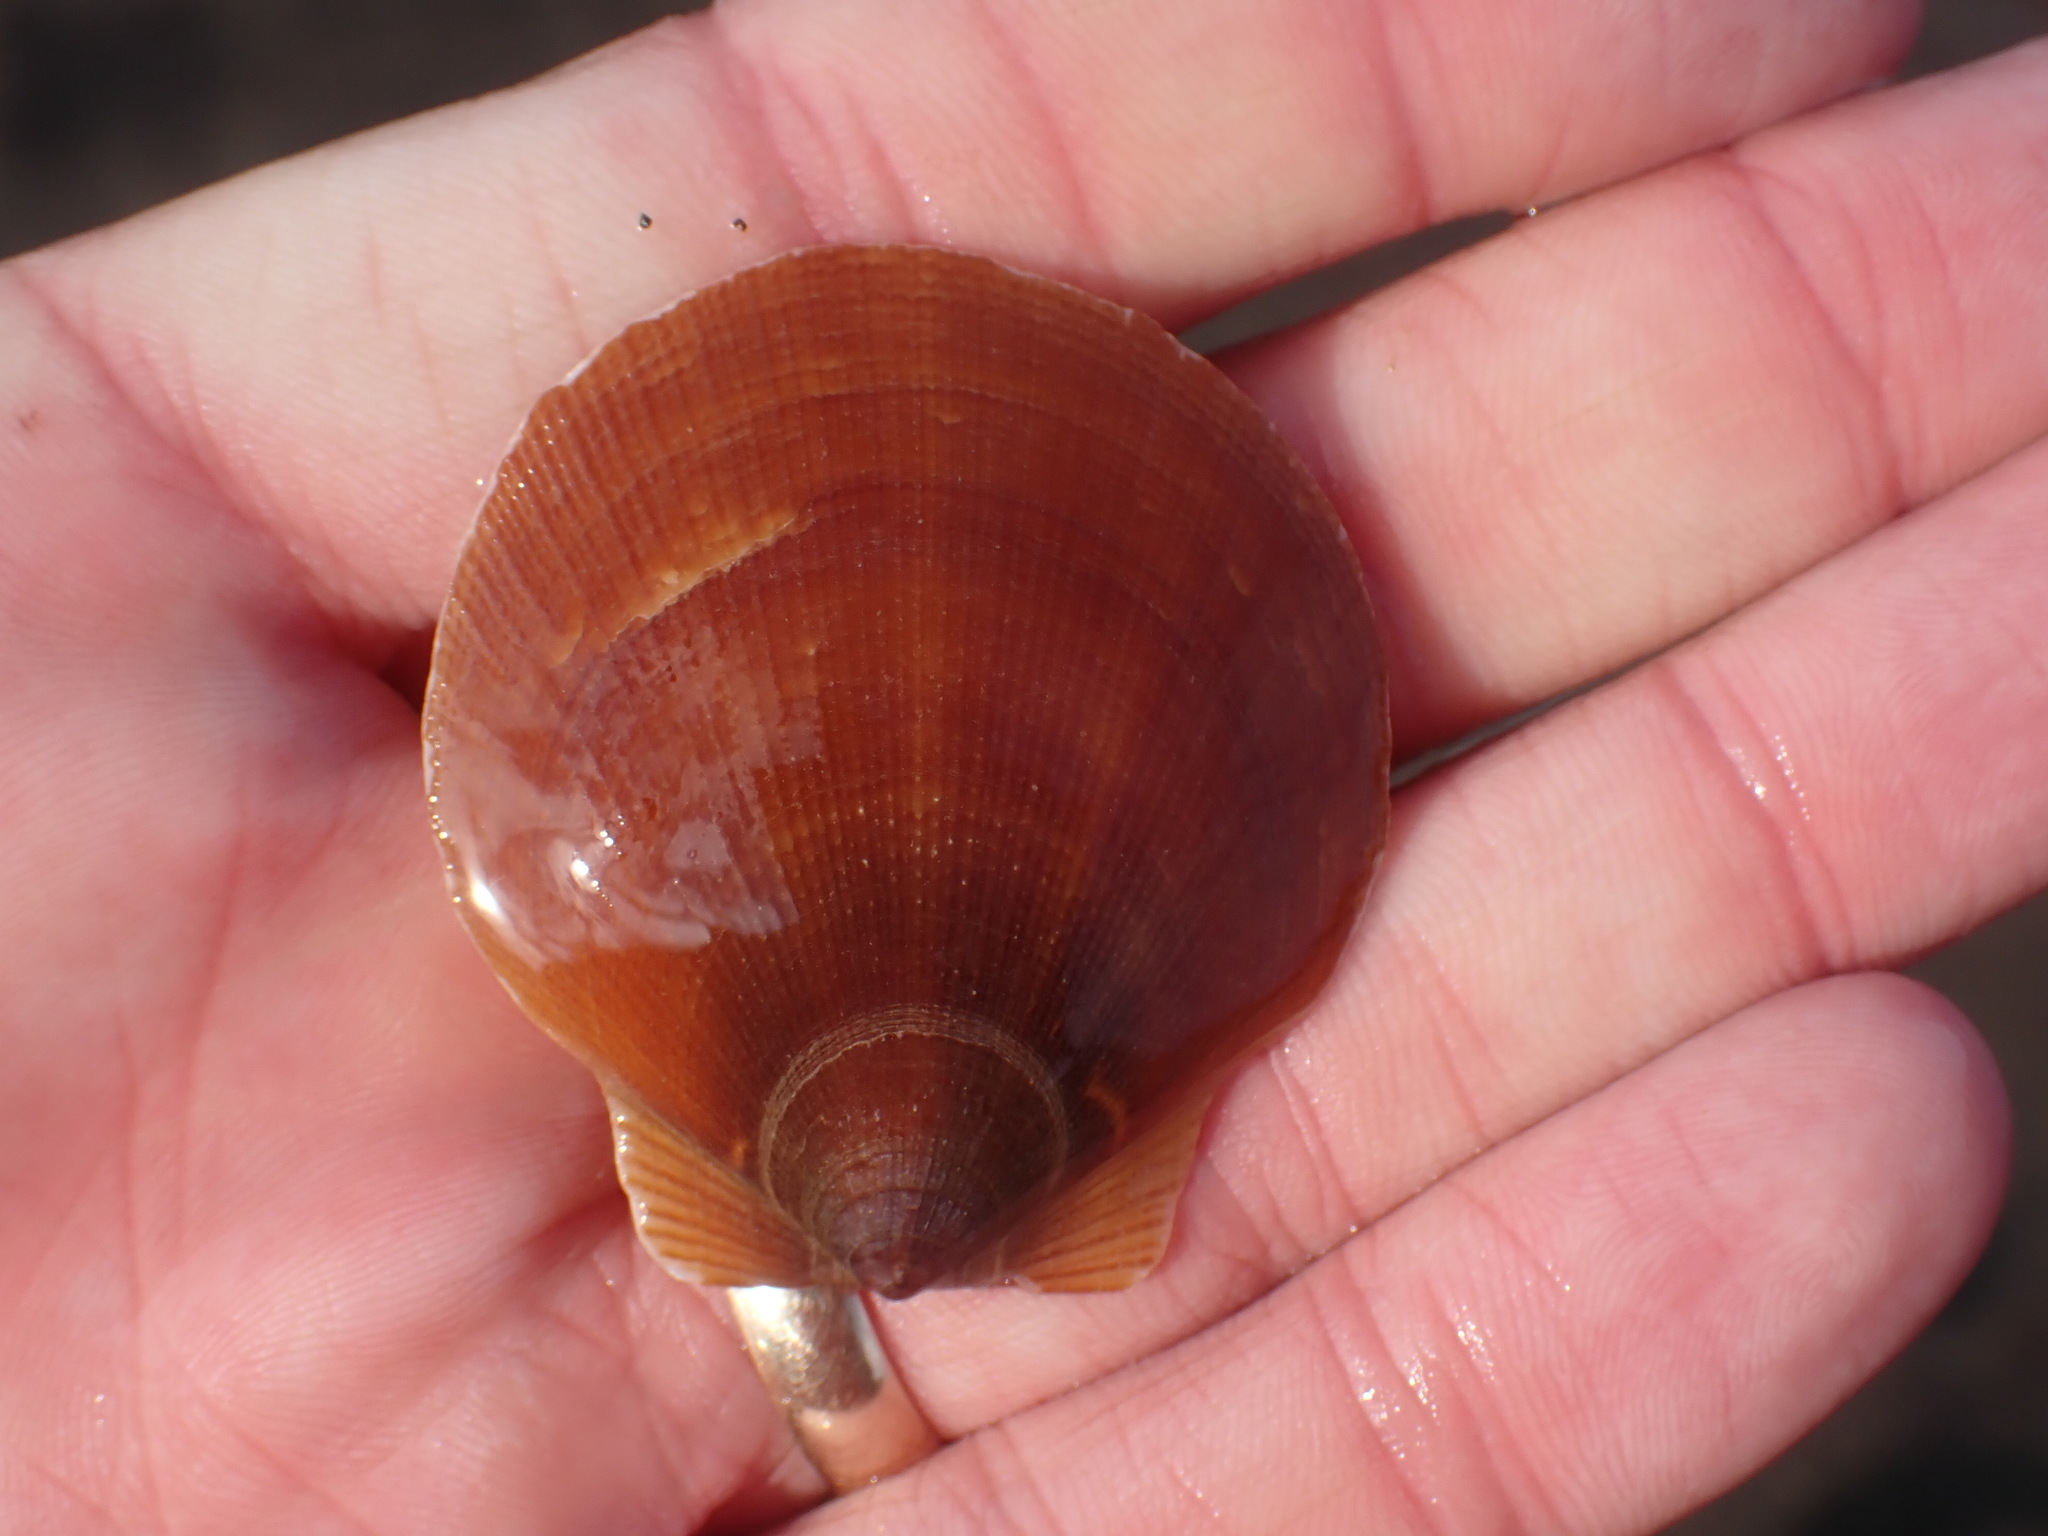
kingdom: Animalia
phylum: Mollusca
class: Bivalvia
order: Pectinida
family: Pectinidae
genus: Placopecten
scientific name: Placopecten magellanicus
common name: American sea scallop
